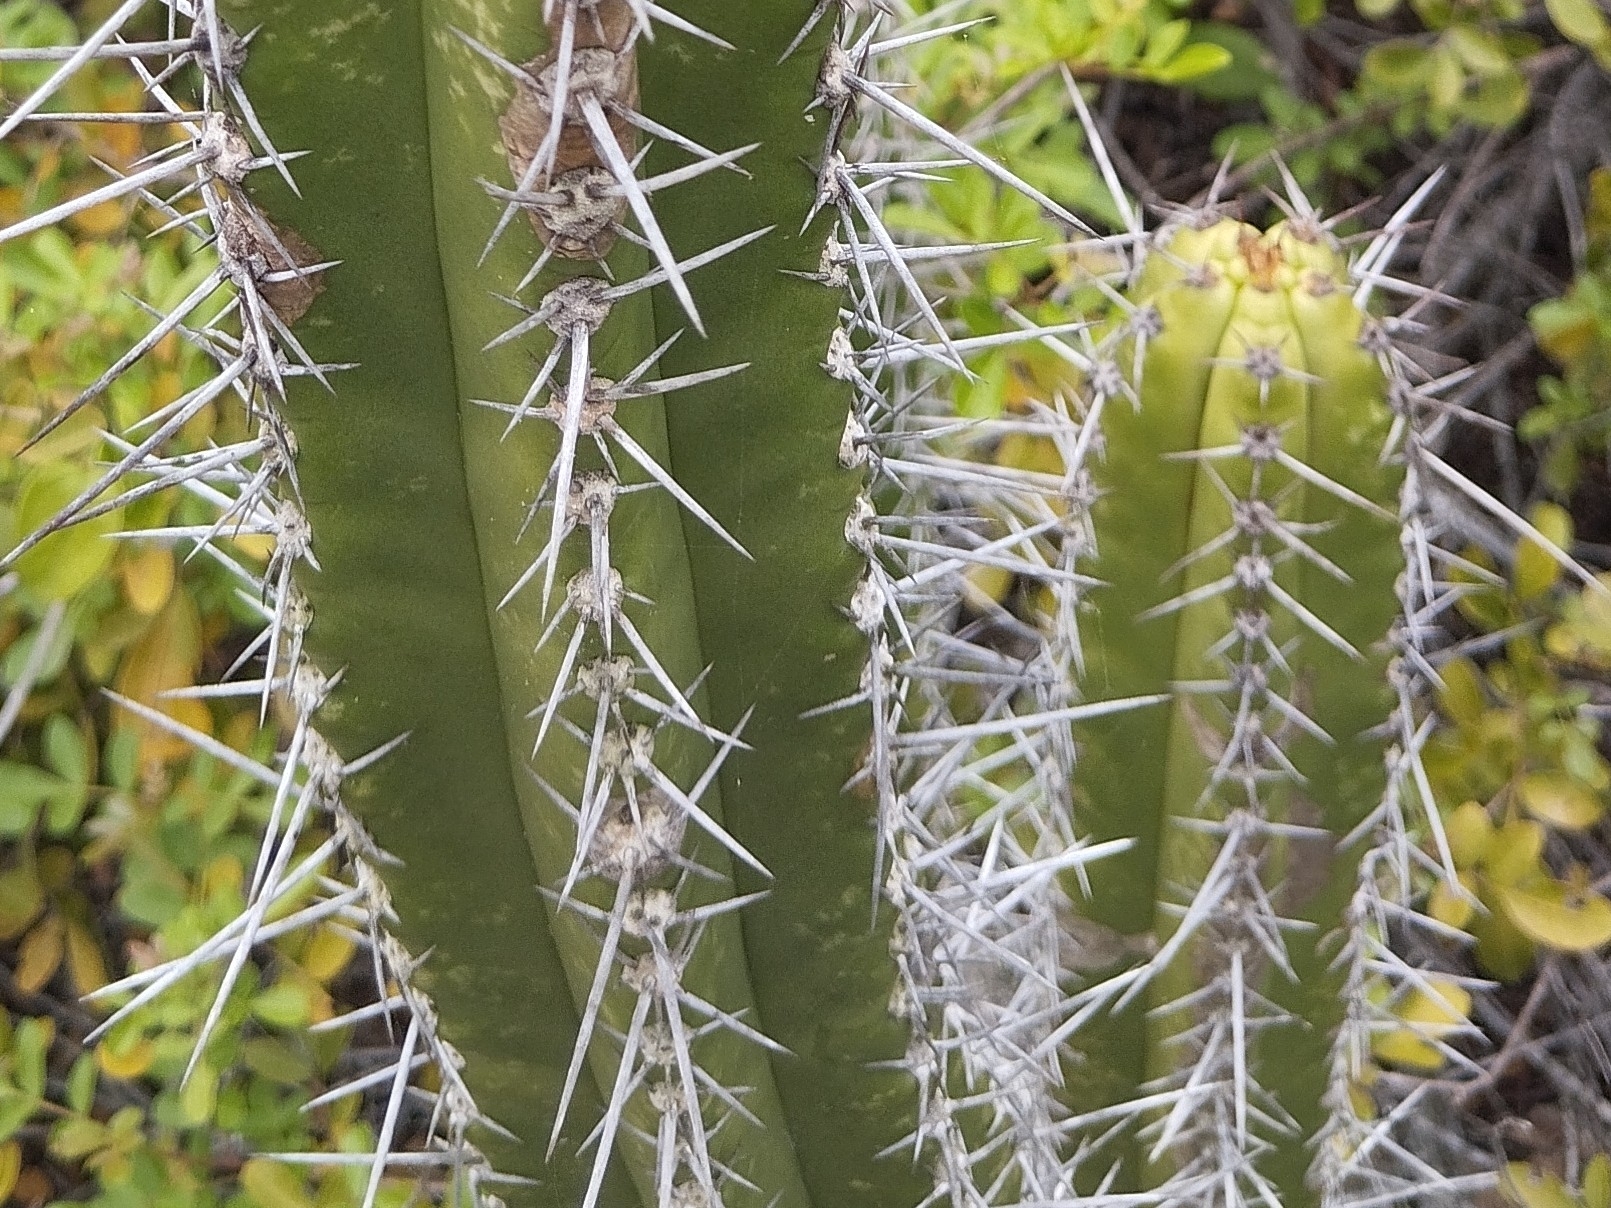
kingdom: Plantae
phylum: Tracheophyta
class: Magnoliopsida
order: Caryophyllales
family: Cactaceae
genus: Pilosocereus
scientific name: Pilosocereus arrabidae
